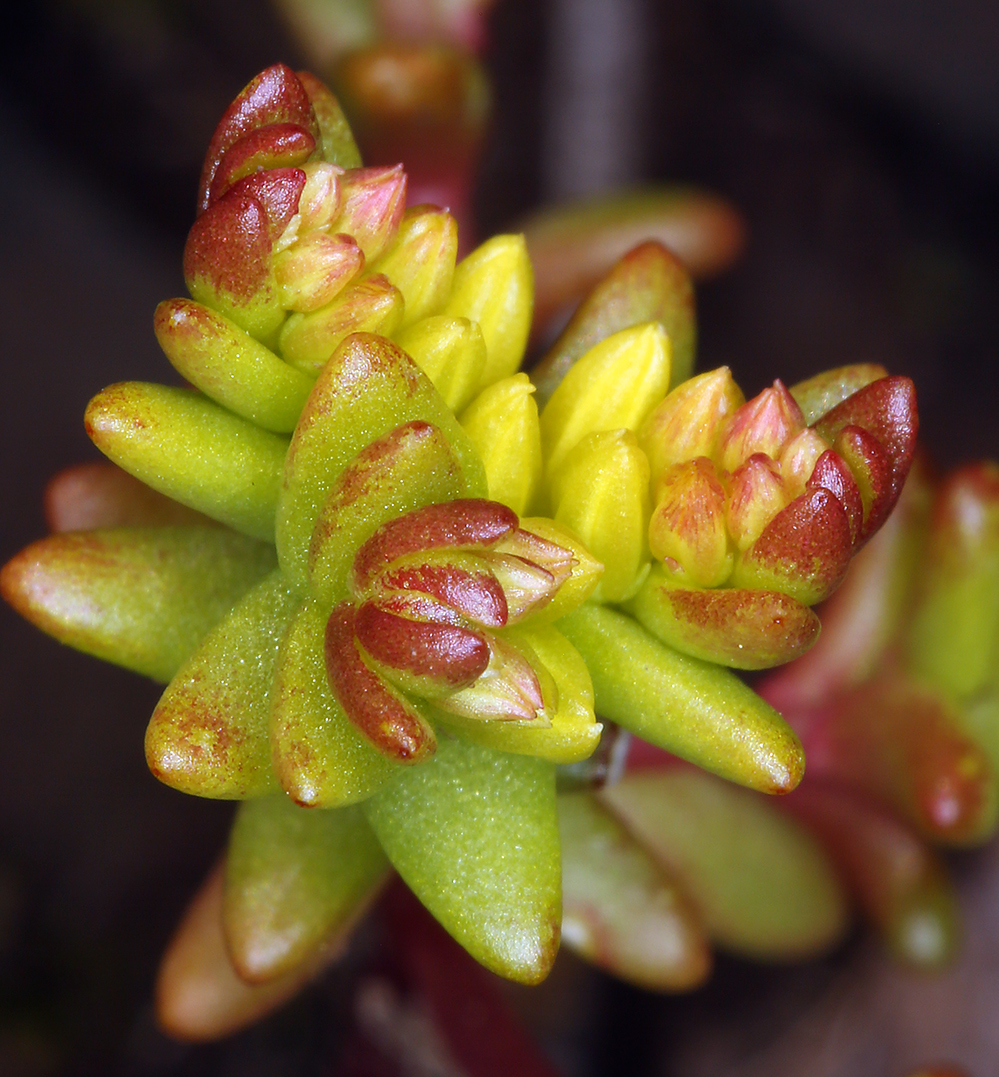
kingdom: Plantae
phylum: Tracheophyta
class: Magnoliopsida
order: Saxifragales
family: Crassulaceae
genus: Sedella
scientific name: Sedella pumila
